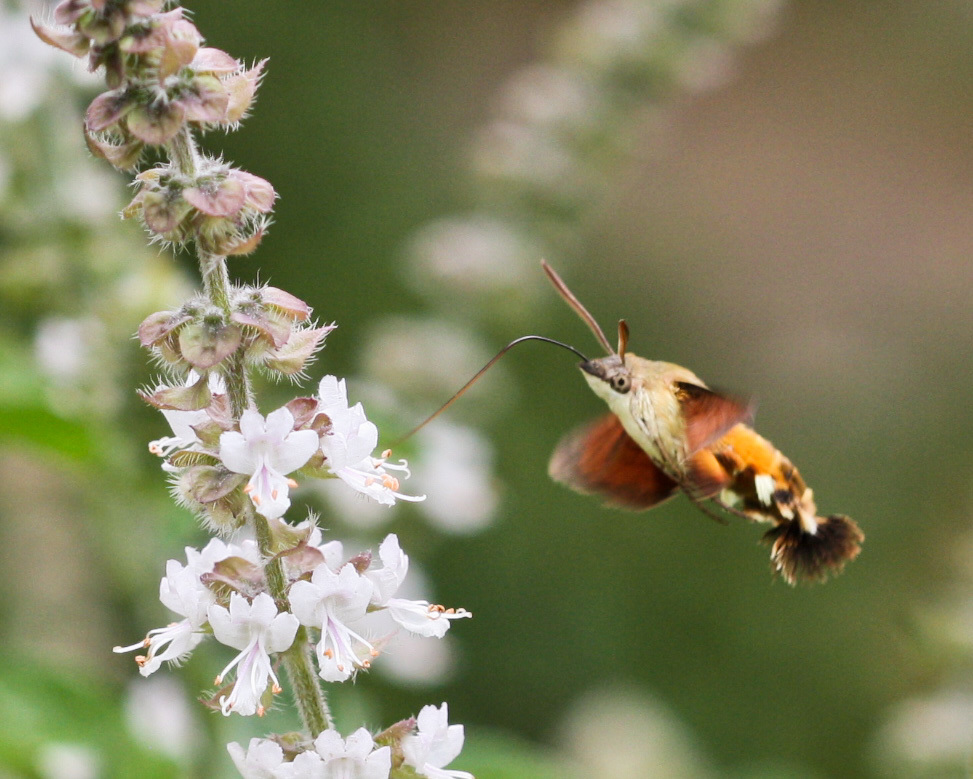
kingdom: Animalia
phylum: Arthropoda
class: Insecta
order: Lepidoptera
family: Sphingidae
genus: Macroglossum
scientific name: Macroglossum trochilus
